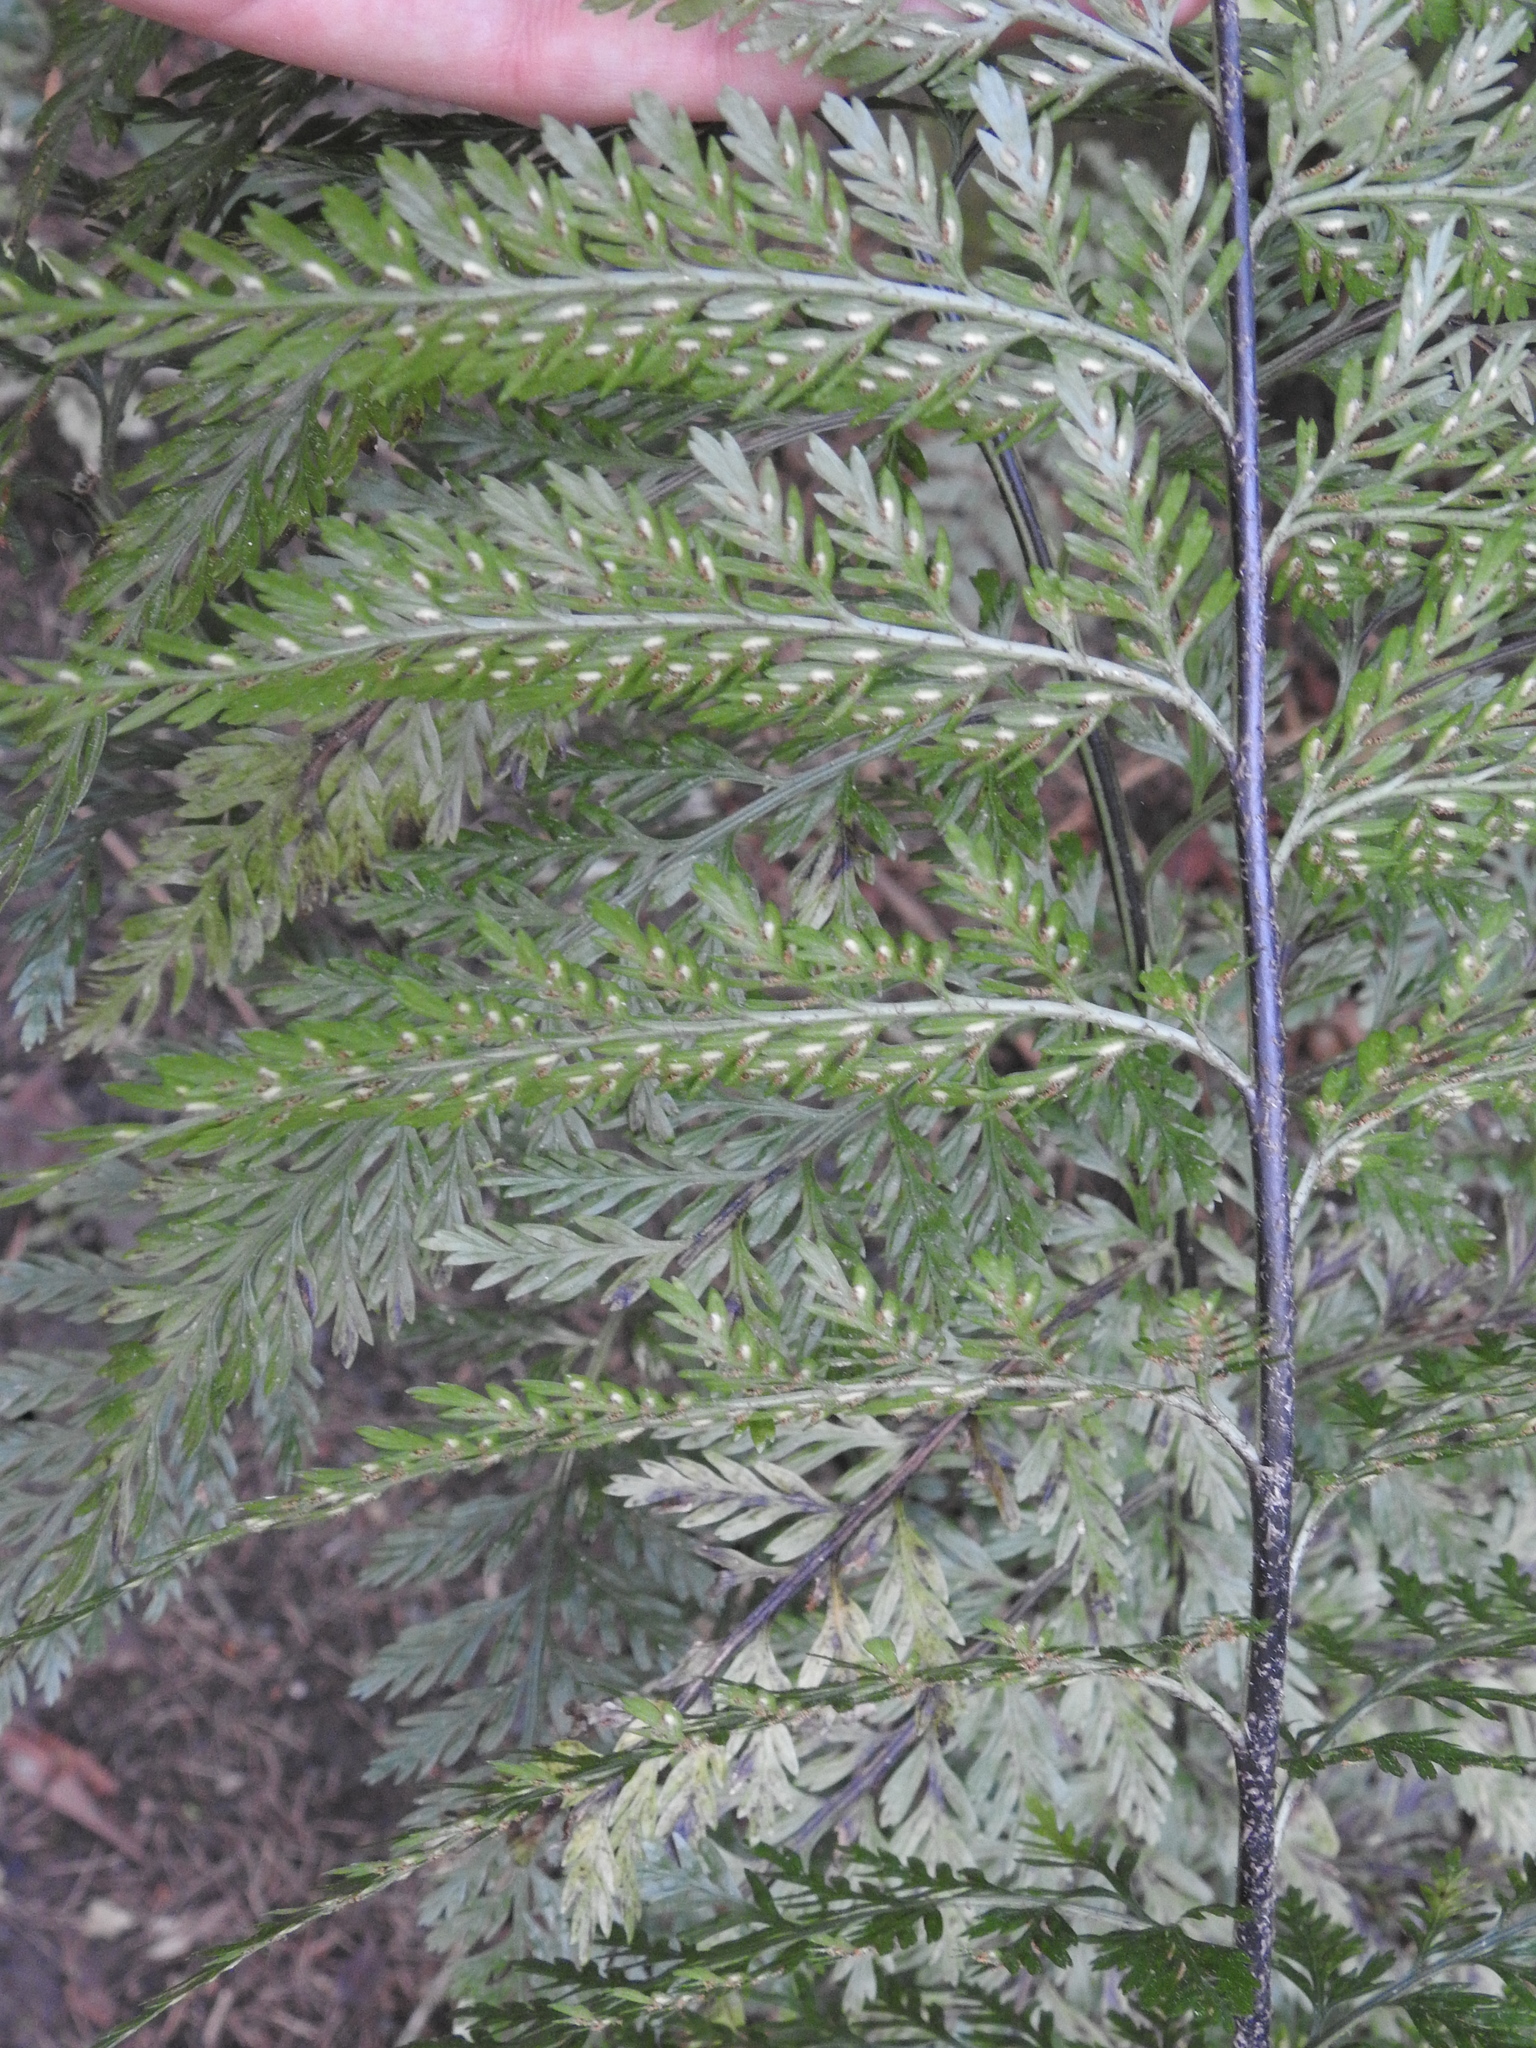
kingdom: Plantae
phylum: Tracheophyta
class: Polypodiopsida
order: Polypodiales
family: Aspleniaceae
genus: Asplenium
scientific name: Asplenium
